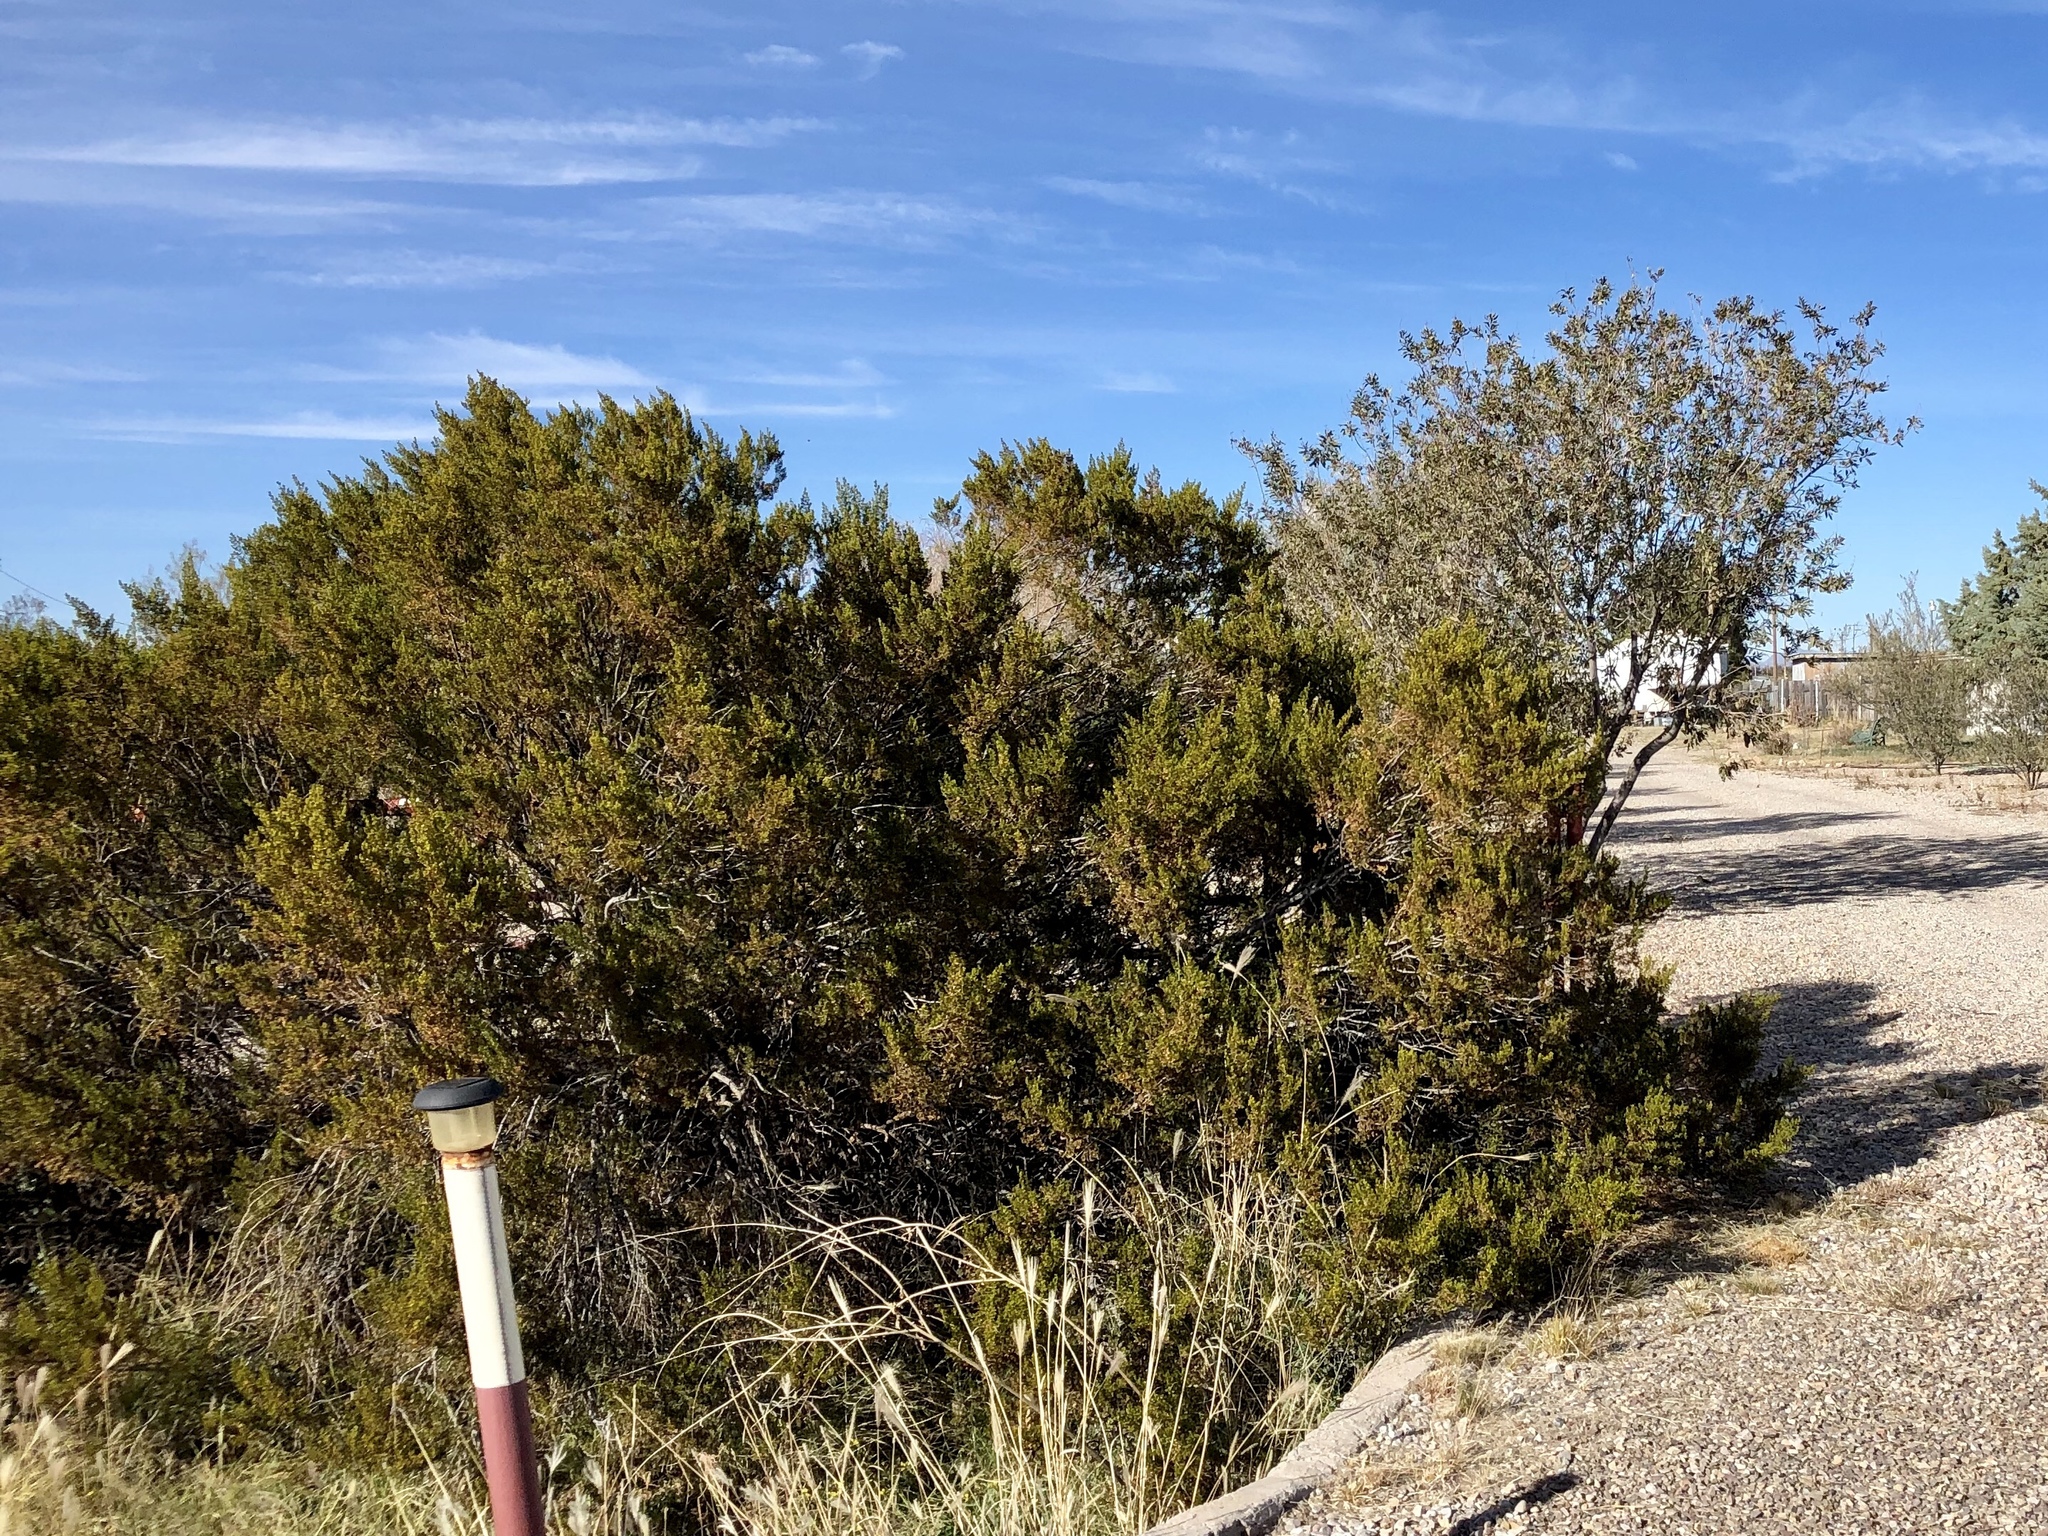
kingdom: Plantae
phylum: Tracheophyta
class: Magnoliopsida
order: Zygophyllales
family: Zygophyllaceae
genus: Larrea
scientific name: Larrea tridentata
